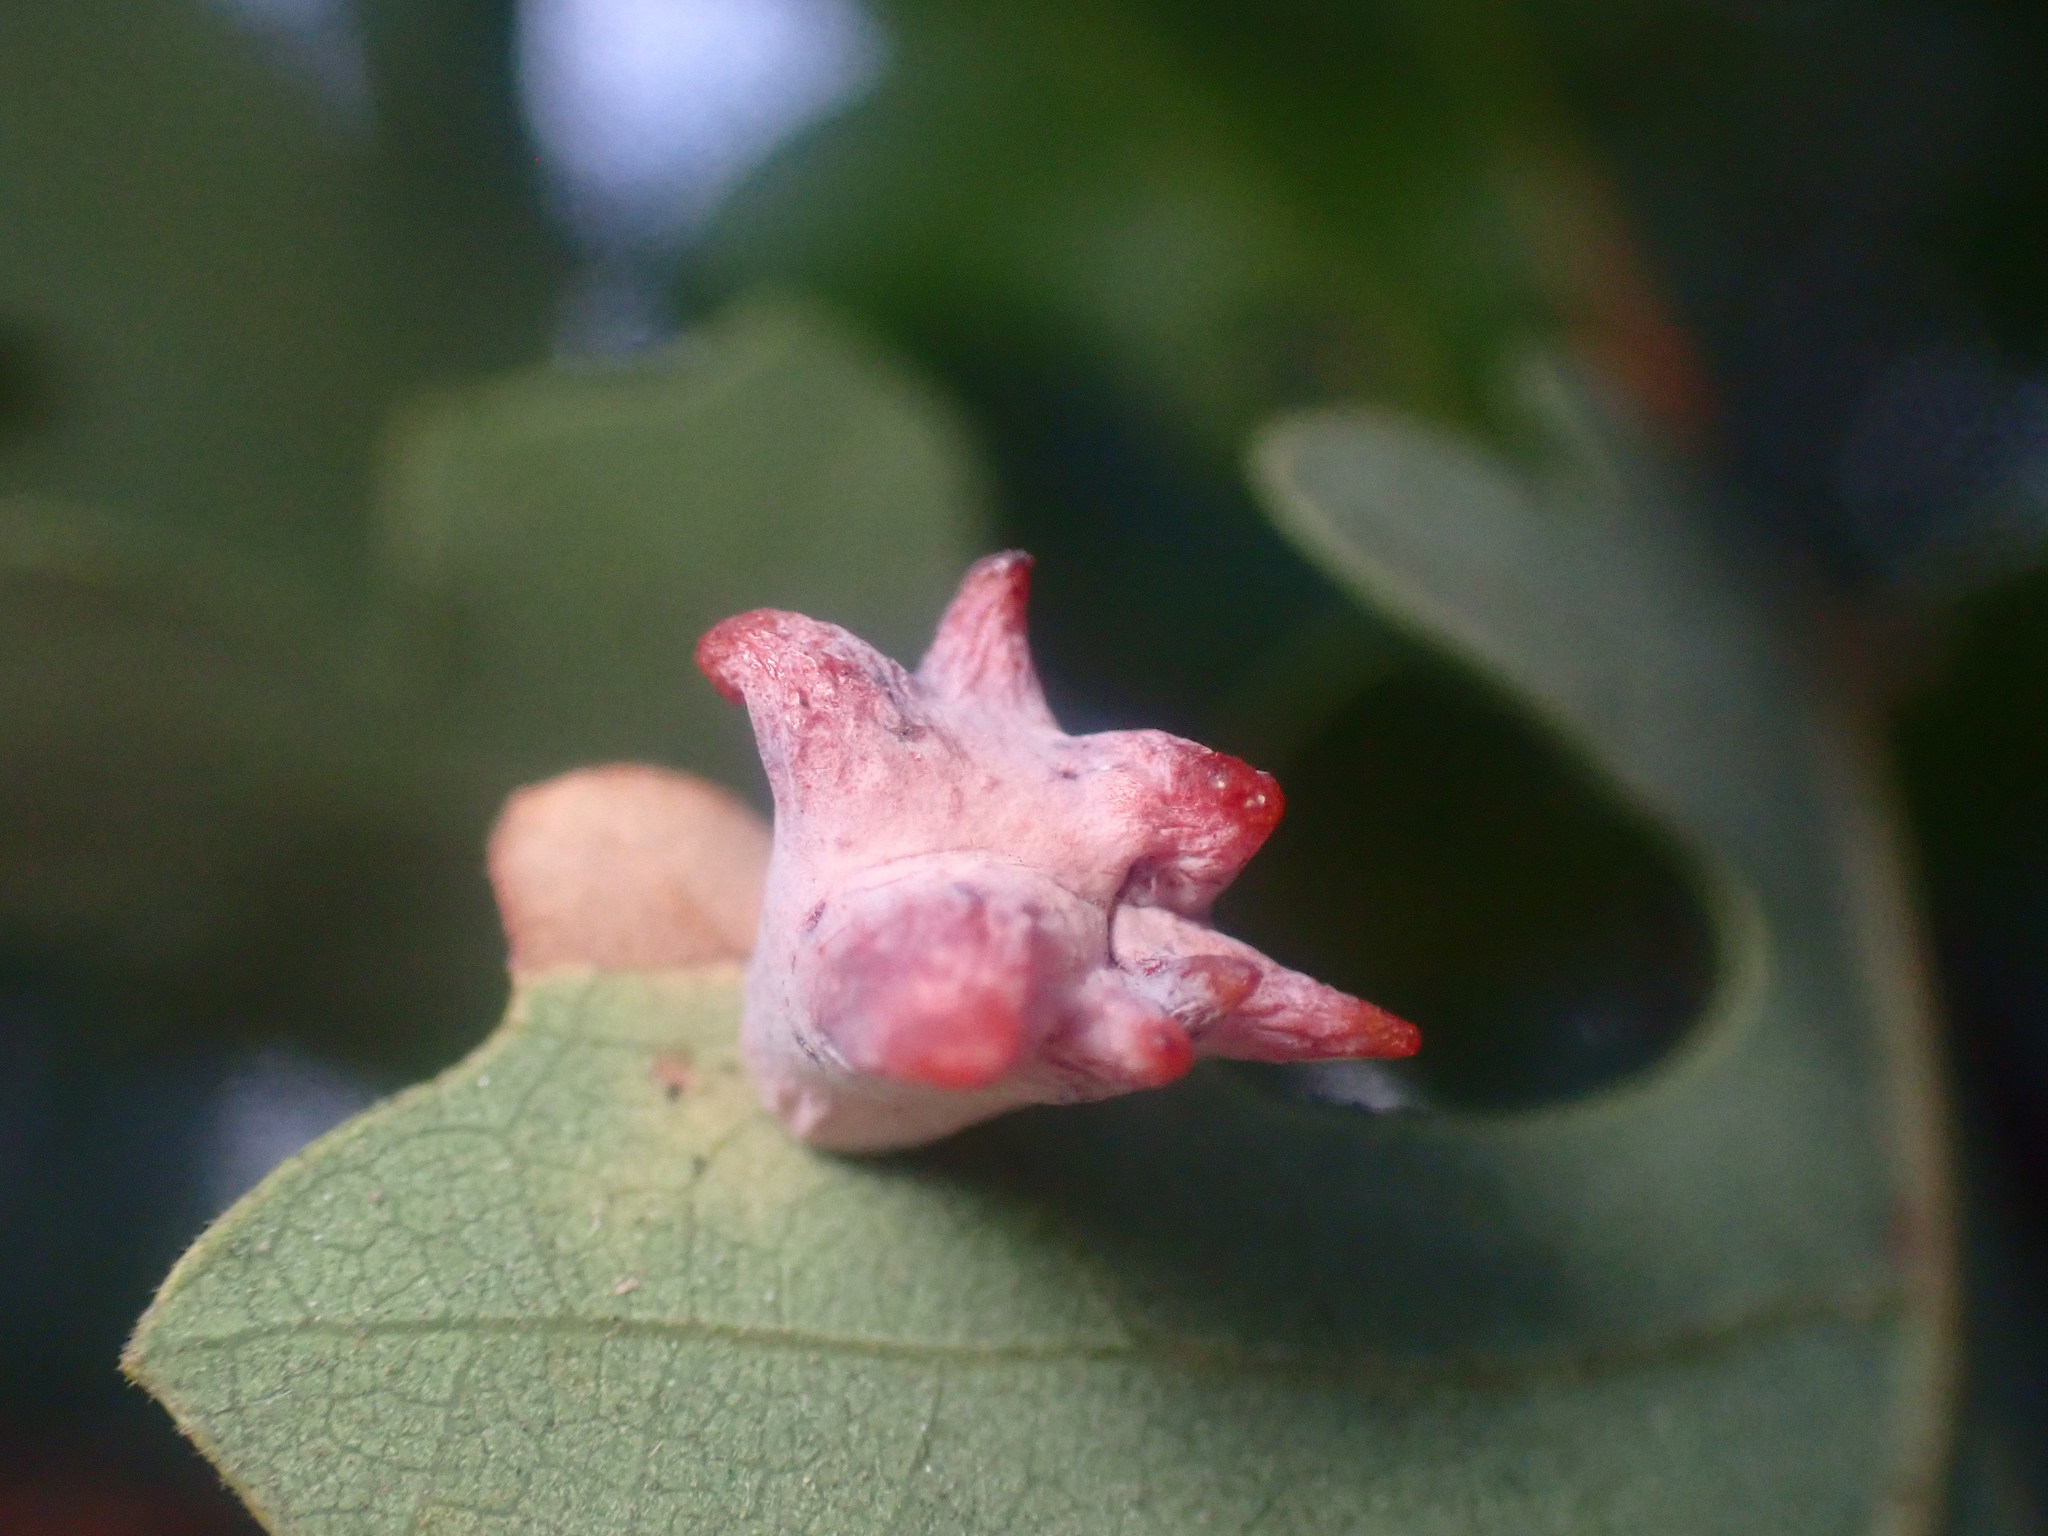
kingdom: Animalia
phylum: Arthropoda
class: Insecta
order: Hymenoptera
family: Cynipidae
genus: Cynips
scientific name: Cynips douglasi
